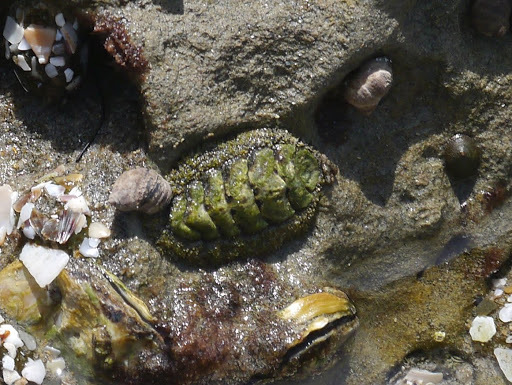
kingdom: Animalia
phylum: Mollusca
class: Polyplacophora
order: Chitonida
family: Mopaliidae
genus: Mopalia
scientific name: Mopalia muscosa
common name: Mossy chiton
